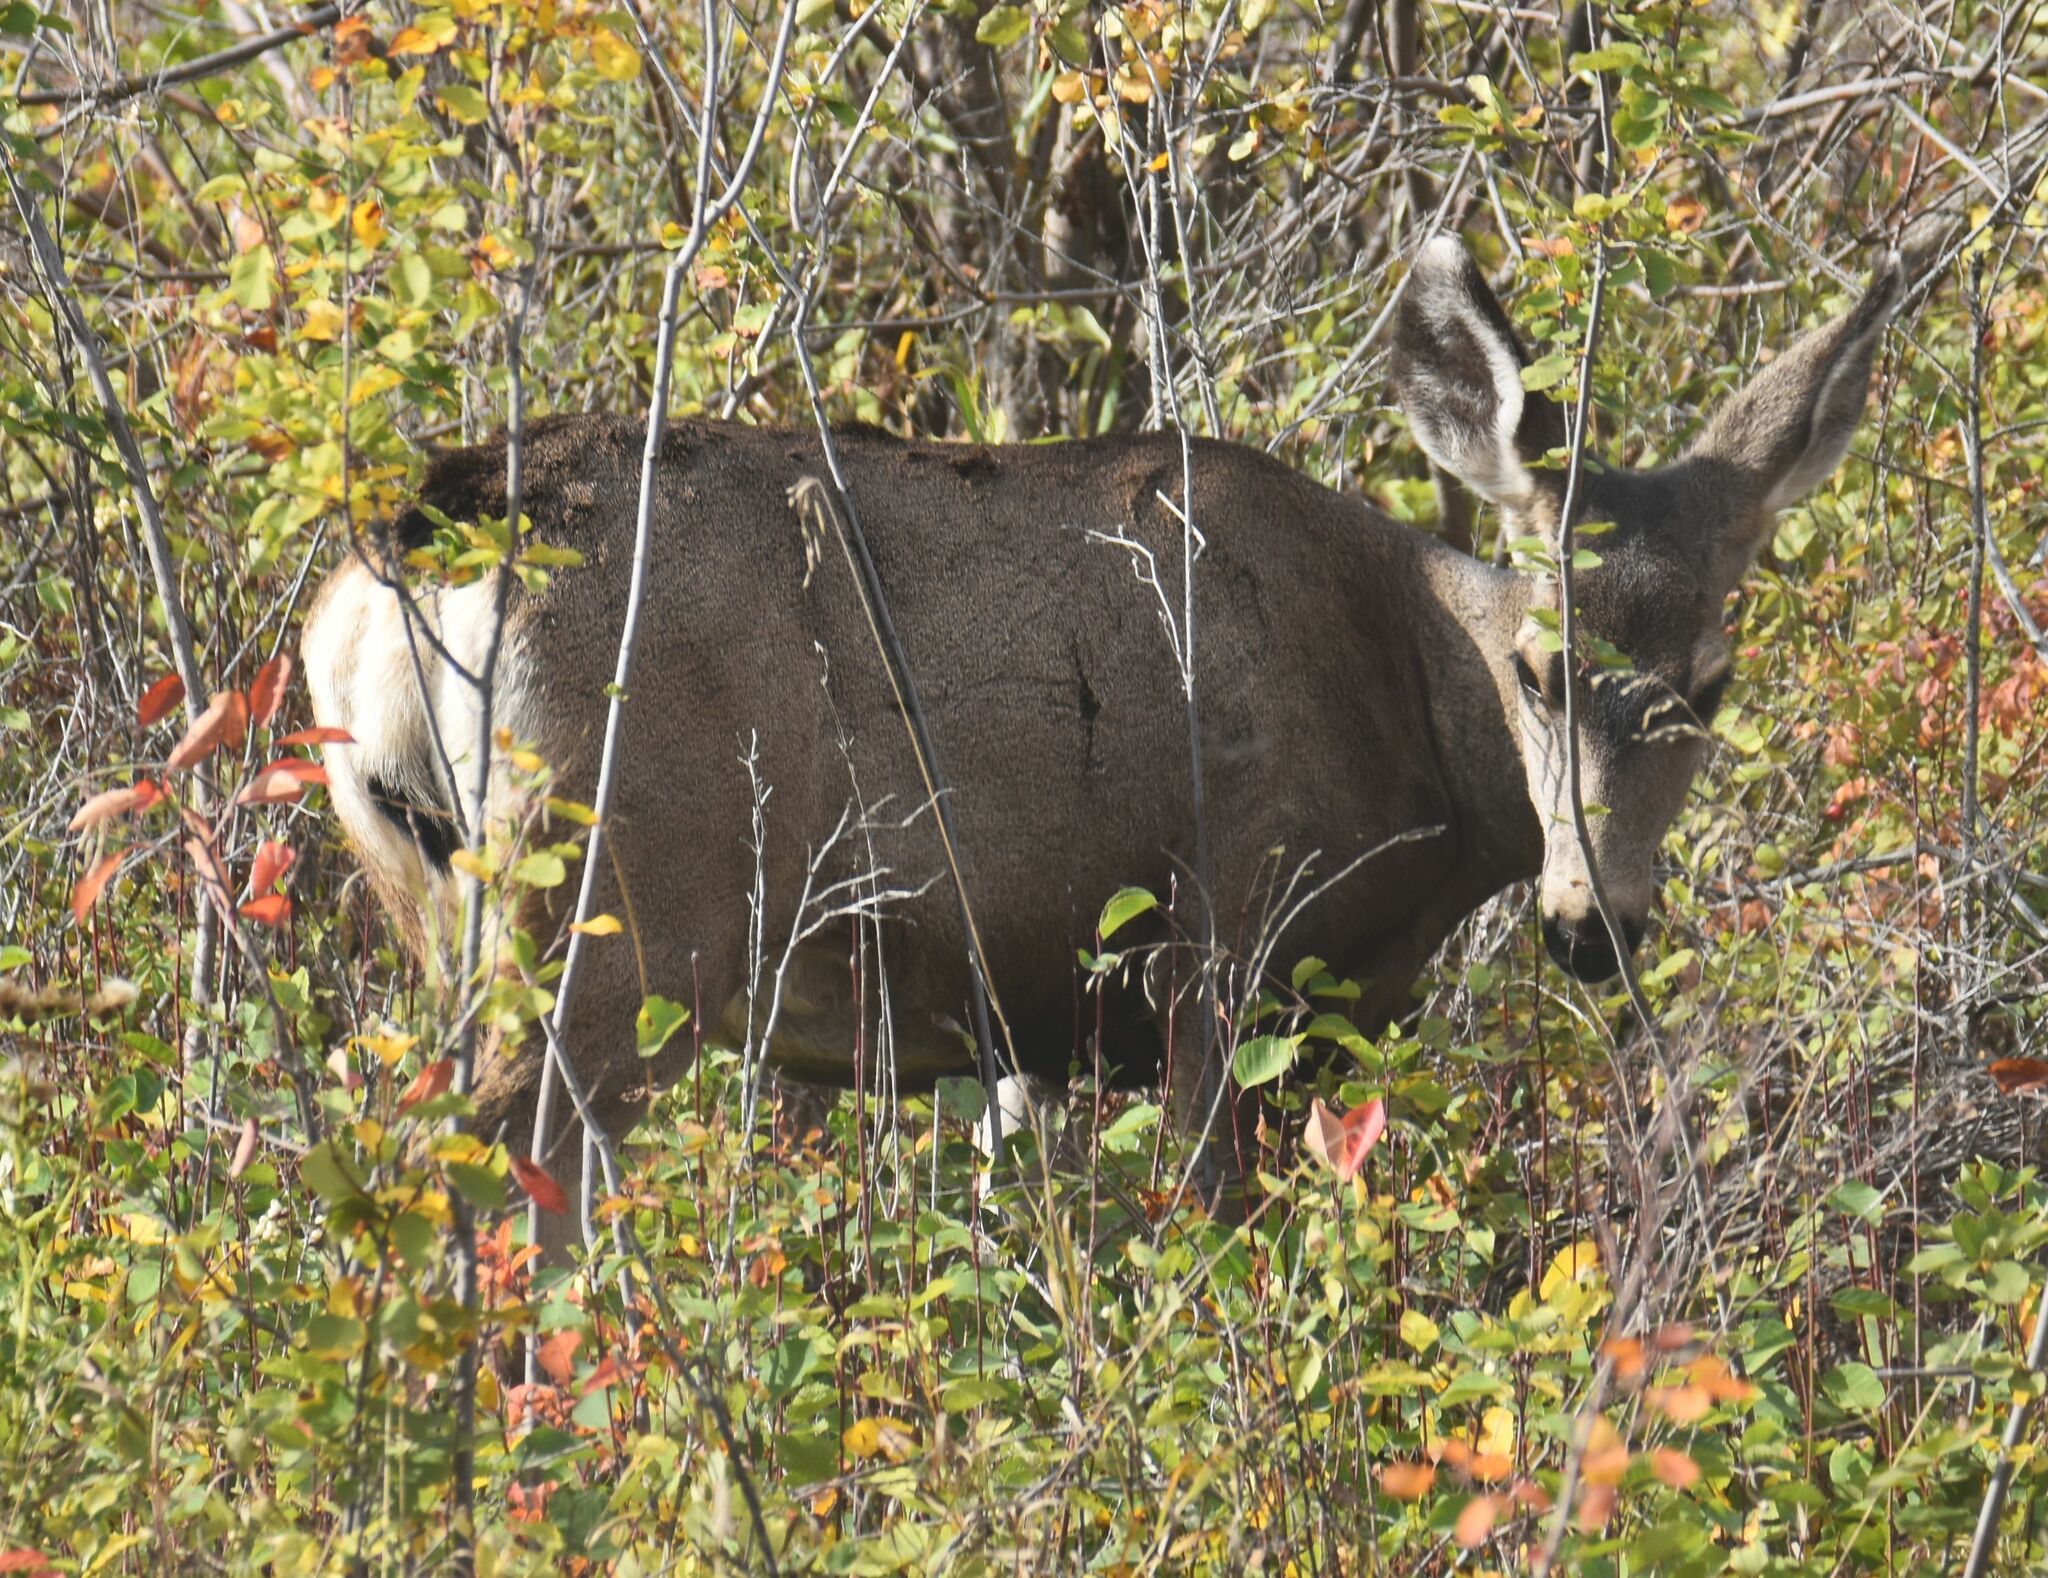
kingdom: Animalia
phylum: Chordata
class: Mammalia
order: Artiodactyla
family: Cervidae
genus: Odocoileus
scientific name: Odocoileus hemionus
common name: Mule deer
